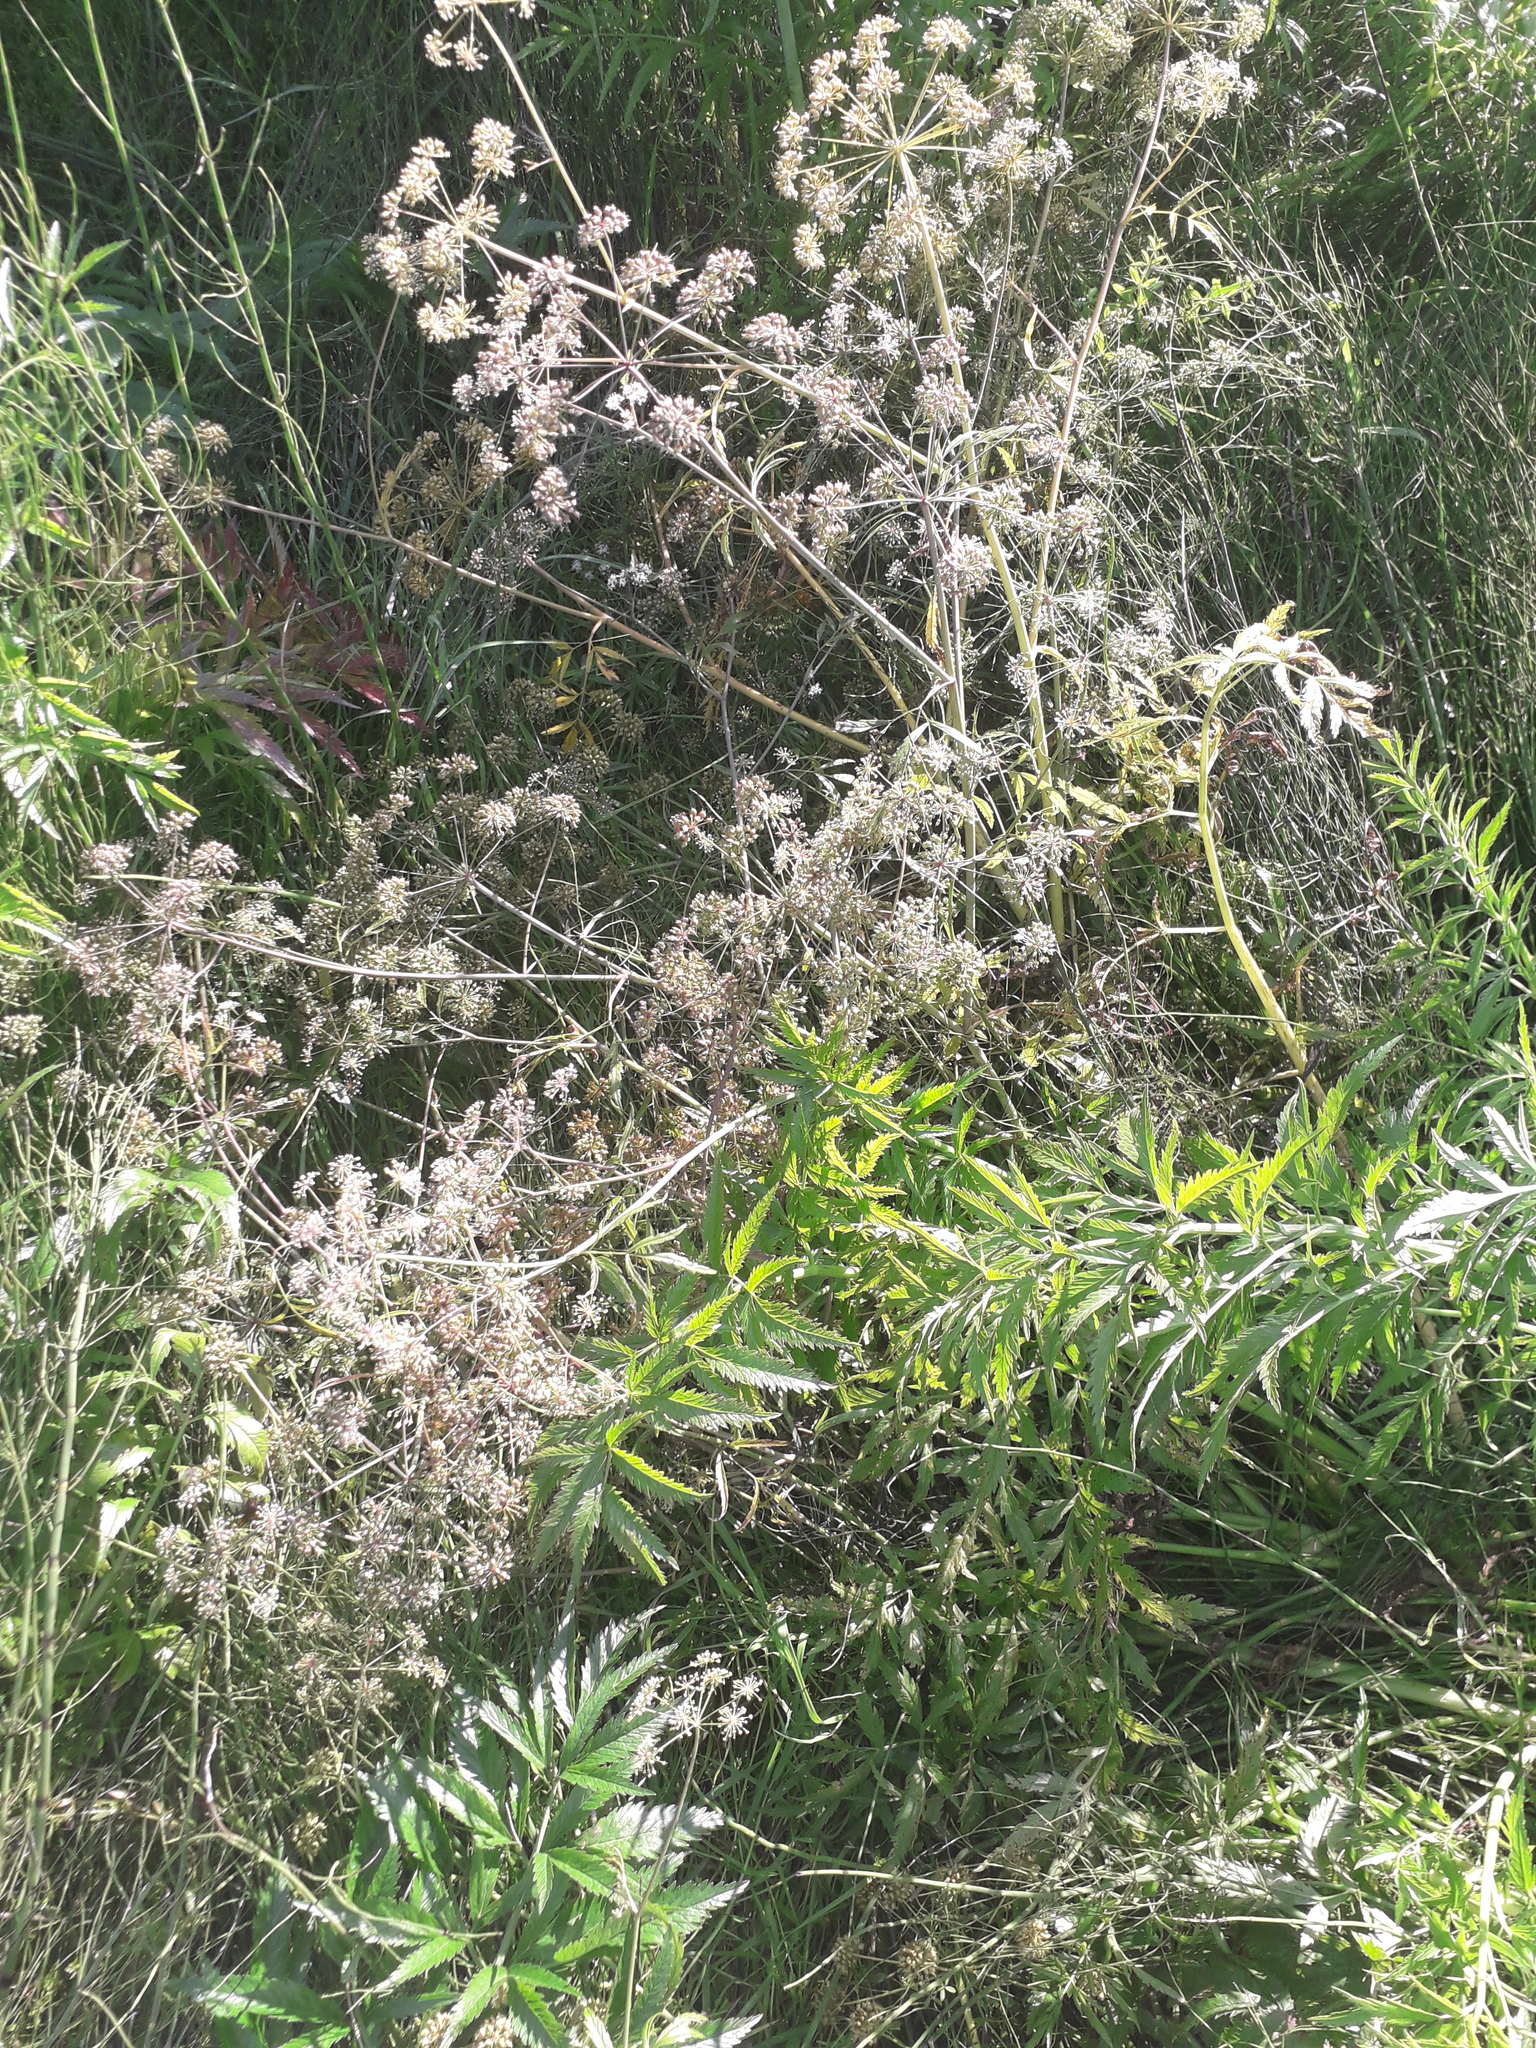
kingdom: Plantae
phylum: Tracheophyta
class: Magnoliopsida
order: Apiales
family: Apiaceae
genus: Cicuta
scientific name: Cicuta virosa
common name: Cowbane
